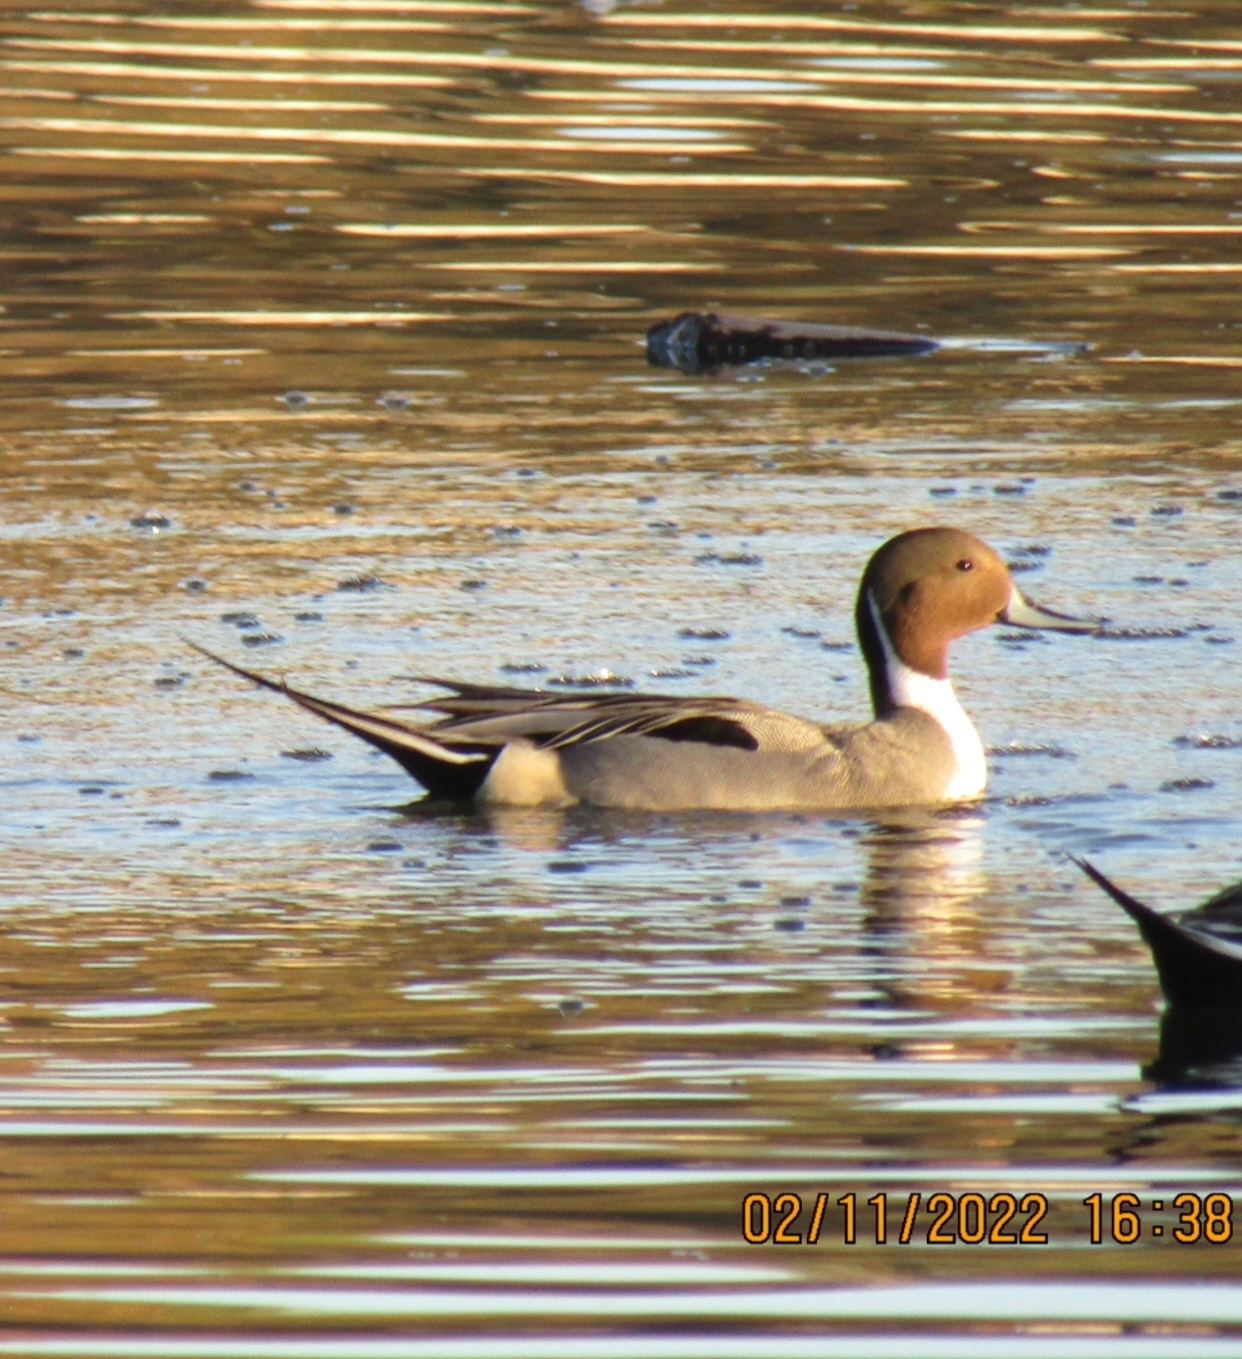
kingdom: Animalia
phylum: Chordata
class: Aves
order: Anseriformes
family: Anatidae
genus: Anas
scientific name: Anas acuta
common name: Northern pintail
